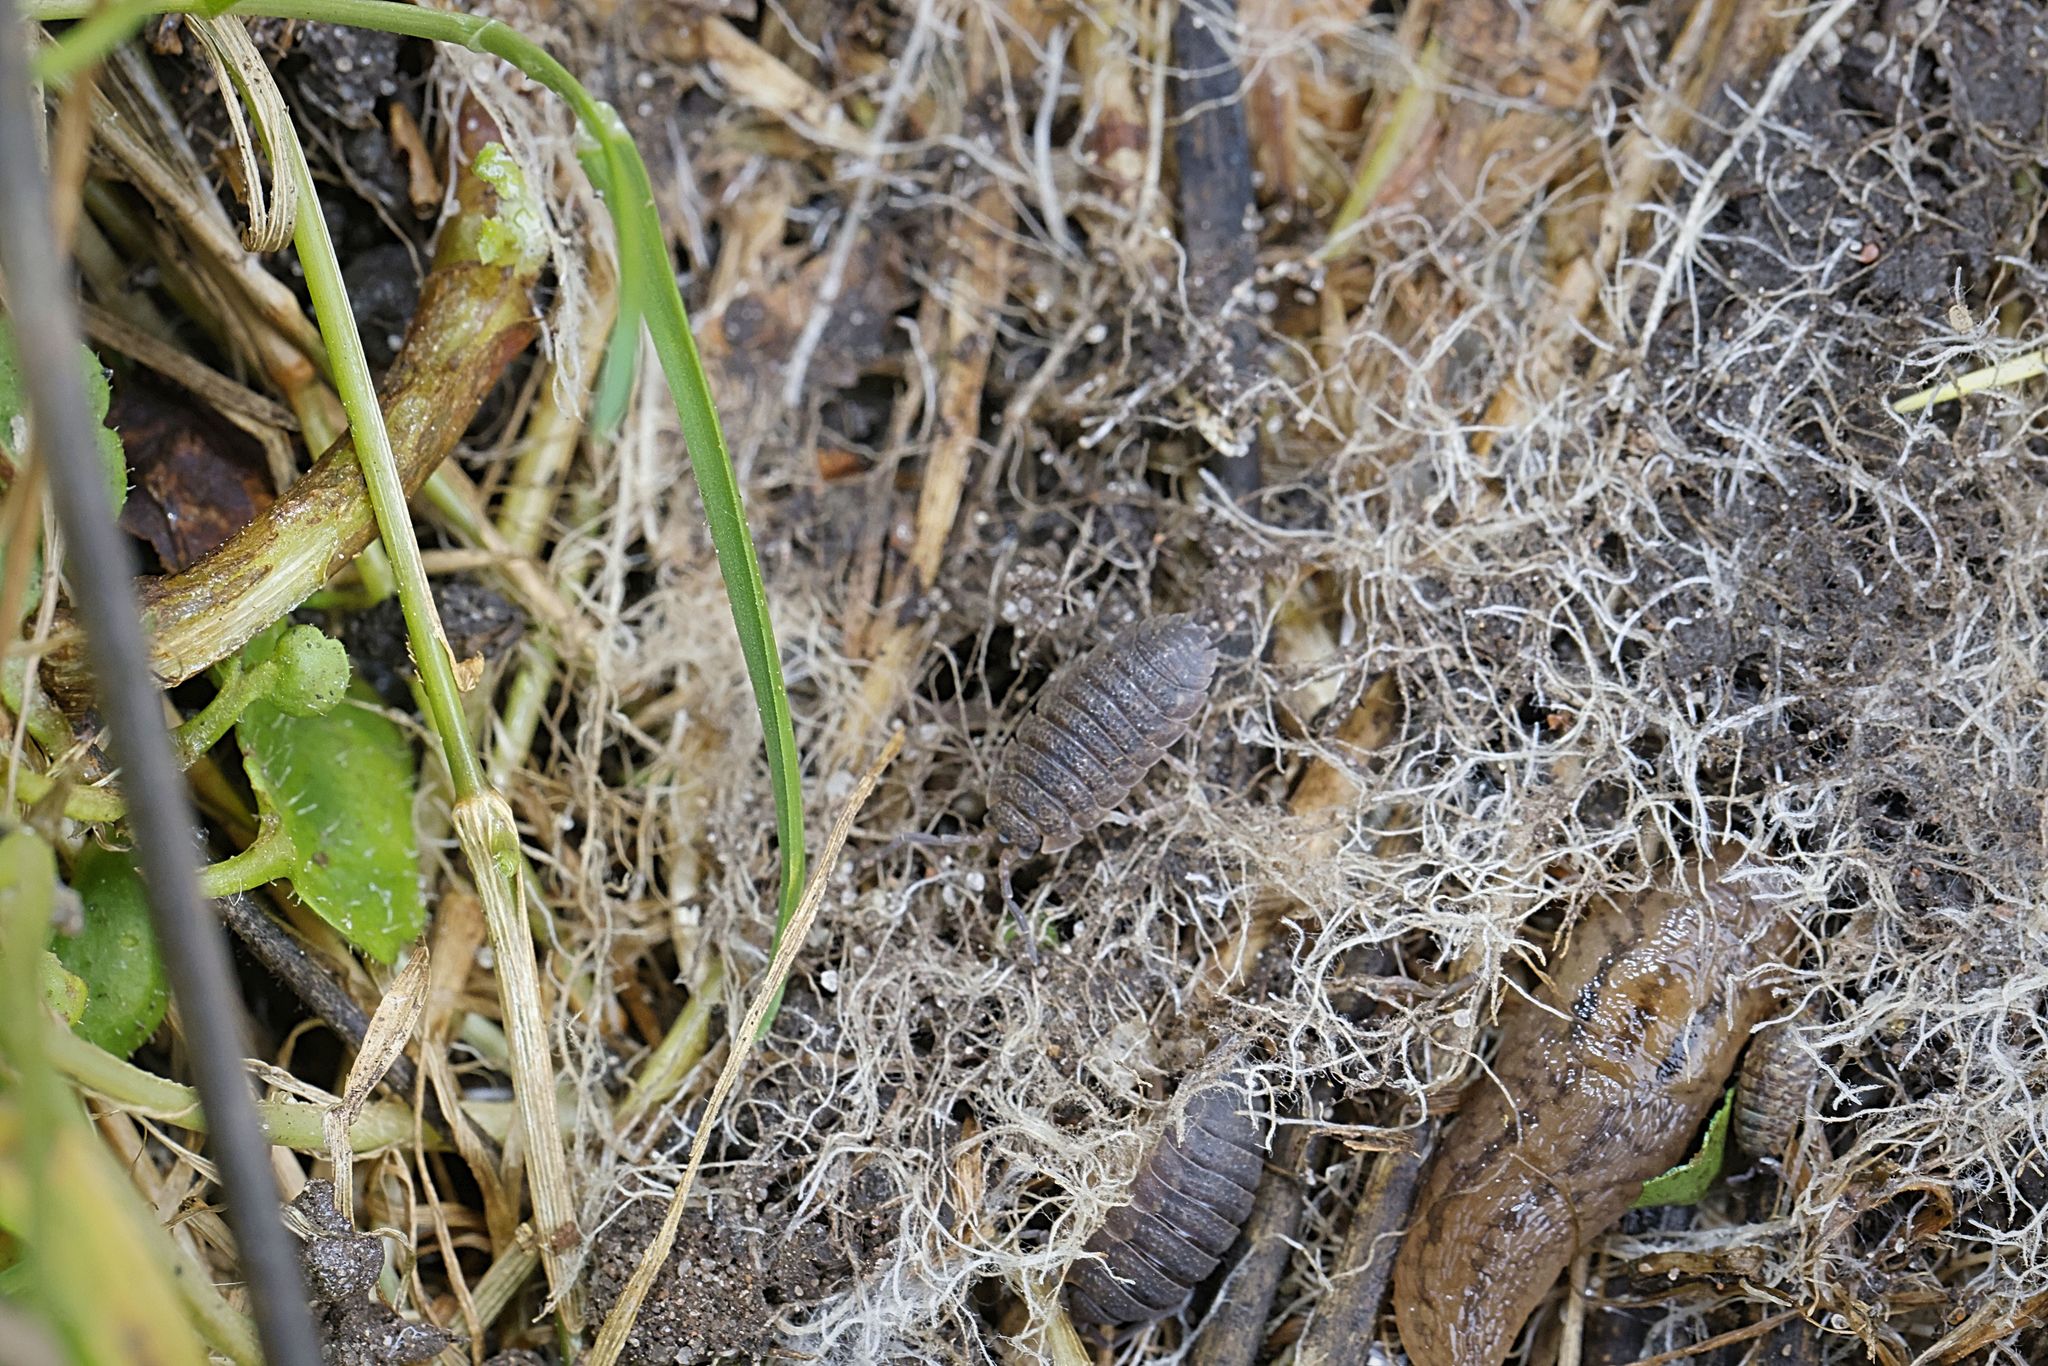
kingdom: Animalia
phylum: Arthropoda
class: Malacostraca
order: Isopoda
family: Porcellionidae
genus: Porcellio
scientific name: Porcellio scaber
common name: Common rough woodlouse
